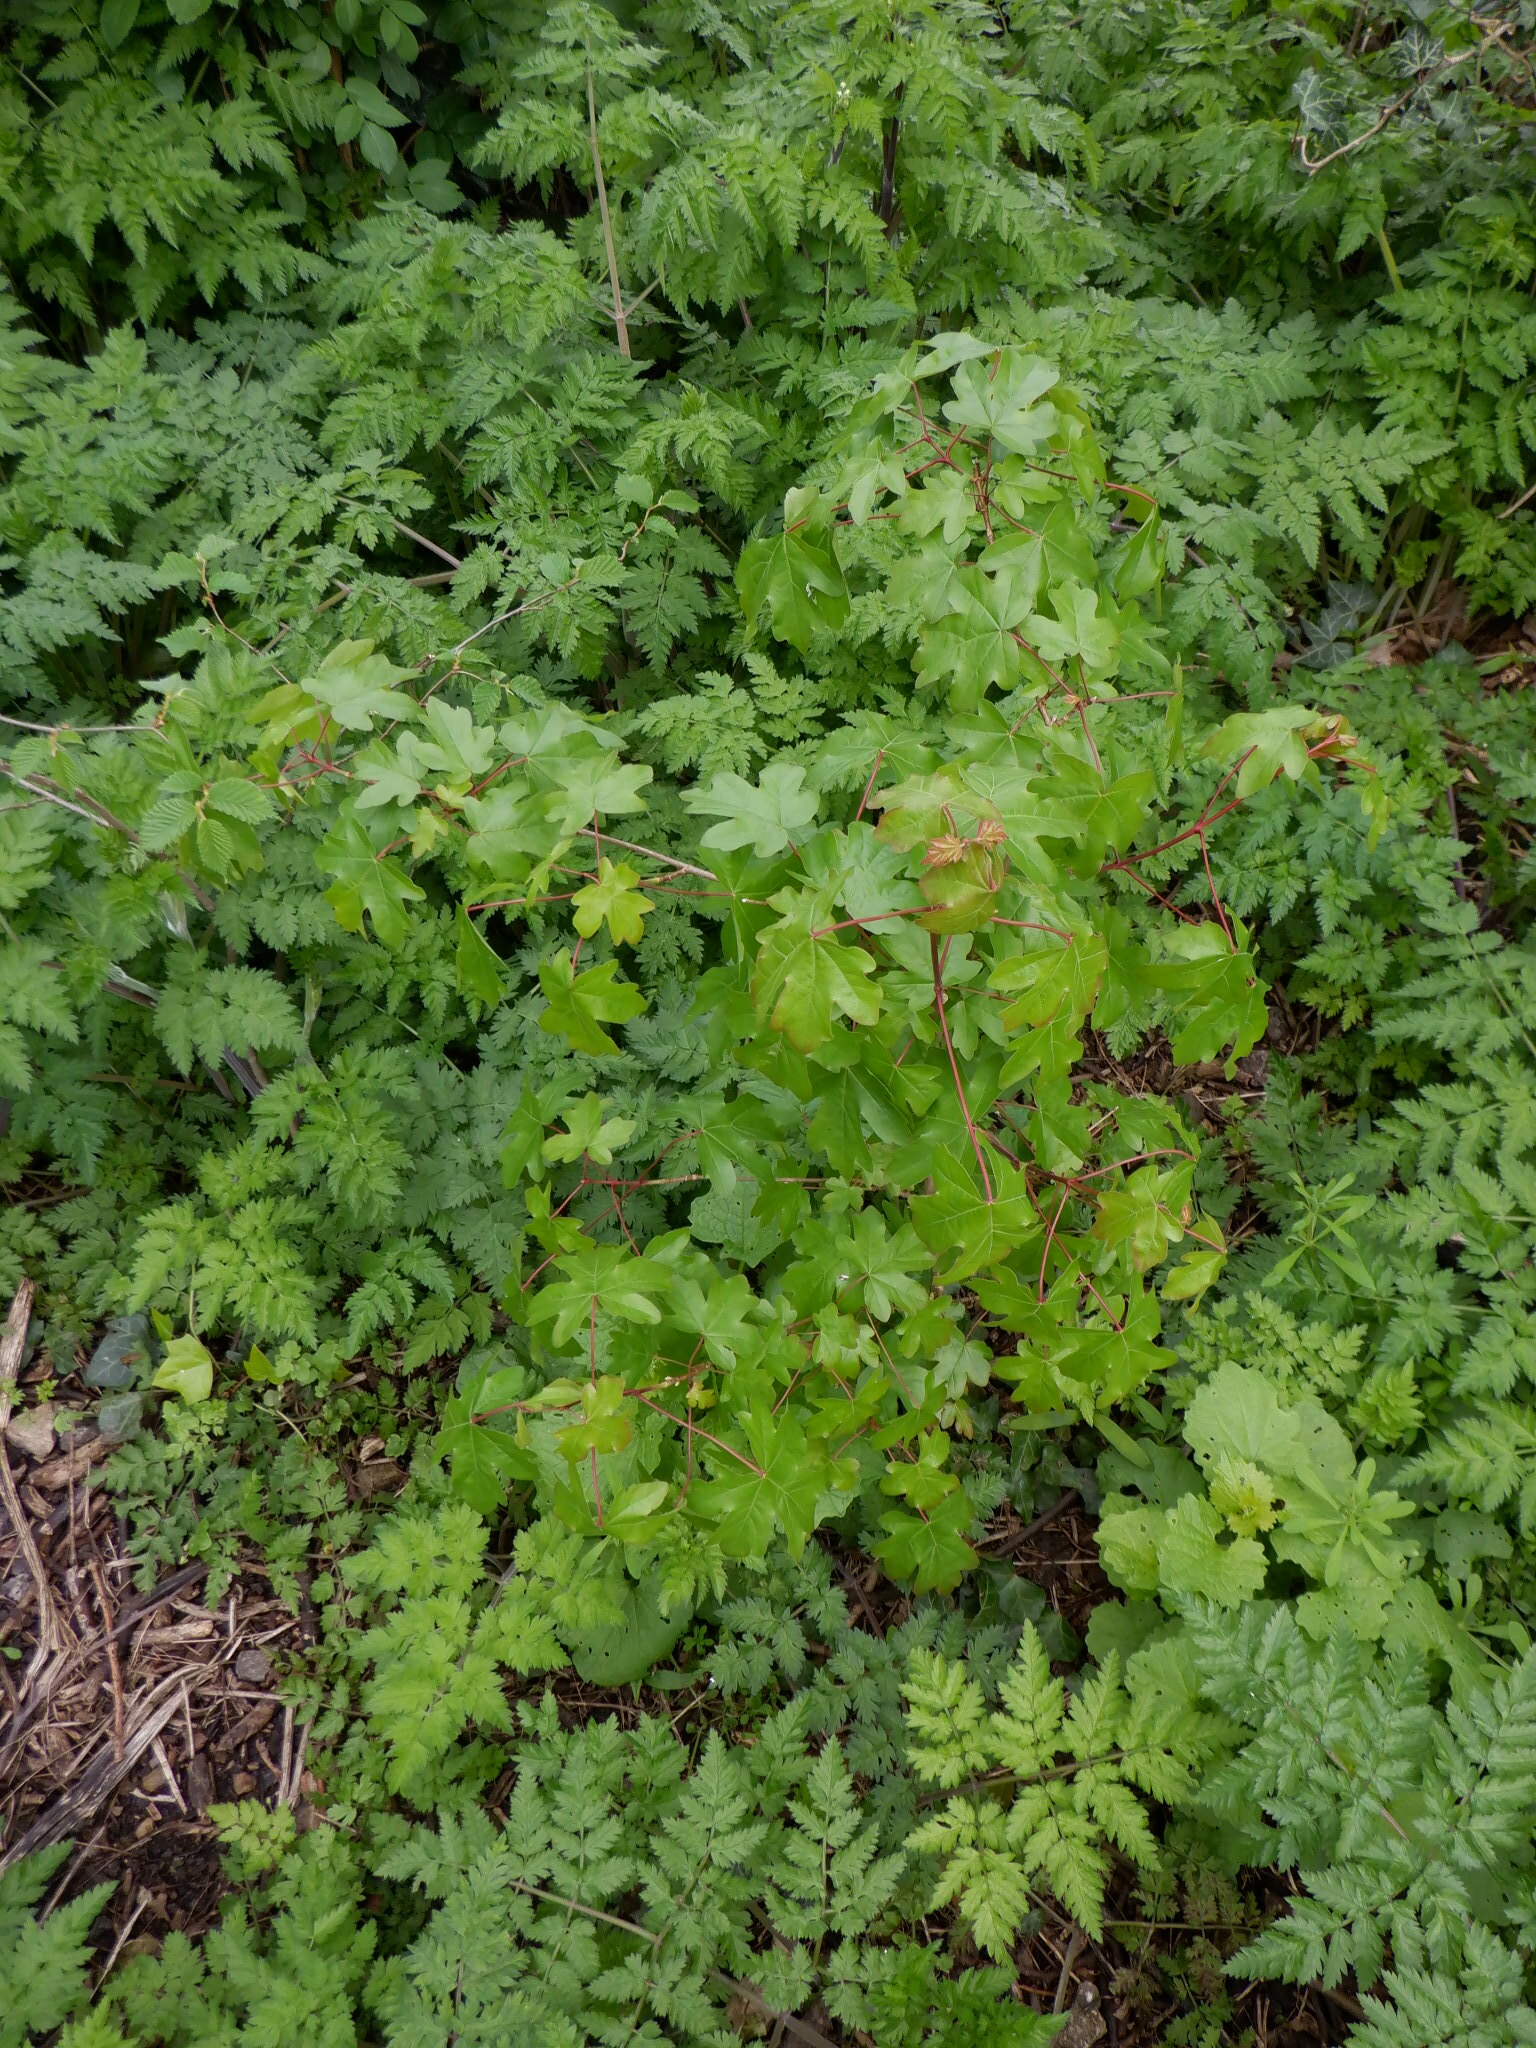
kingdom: Plantae
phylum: Tracheophyta
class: Magnoliopsida
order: Sapindales
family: Sapindaceae
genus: Acer
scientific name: Acer campestre
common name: Field maple
